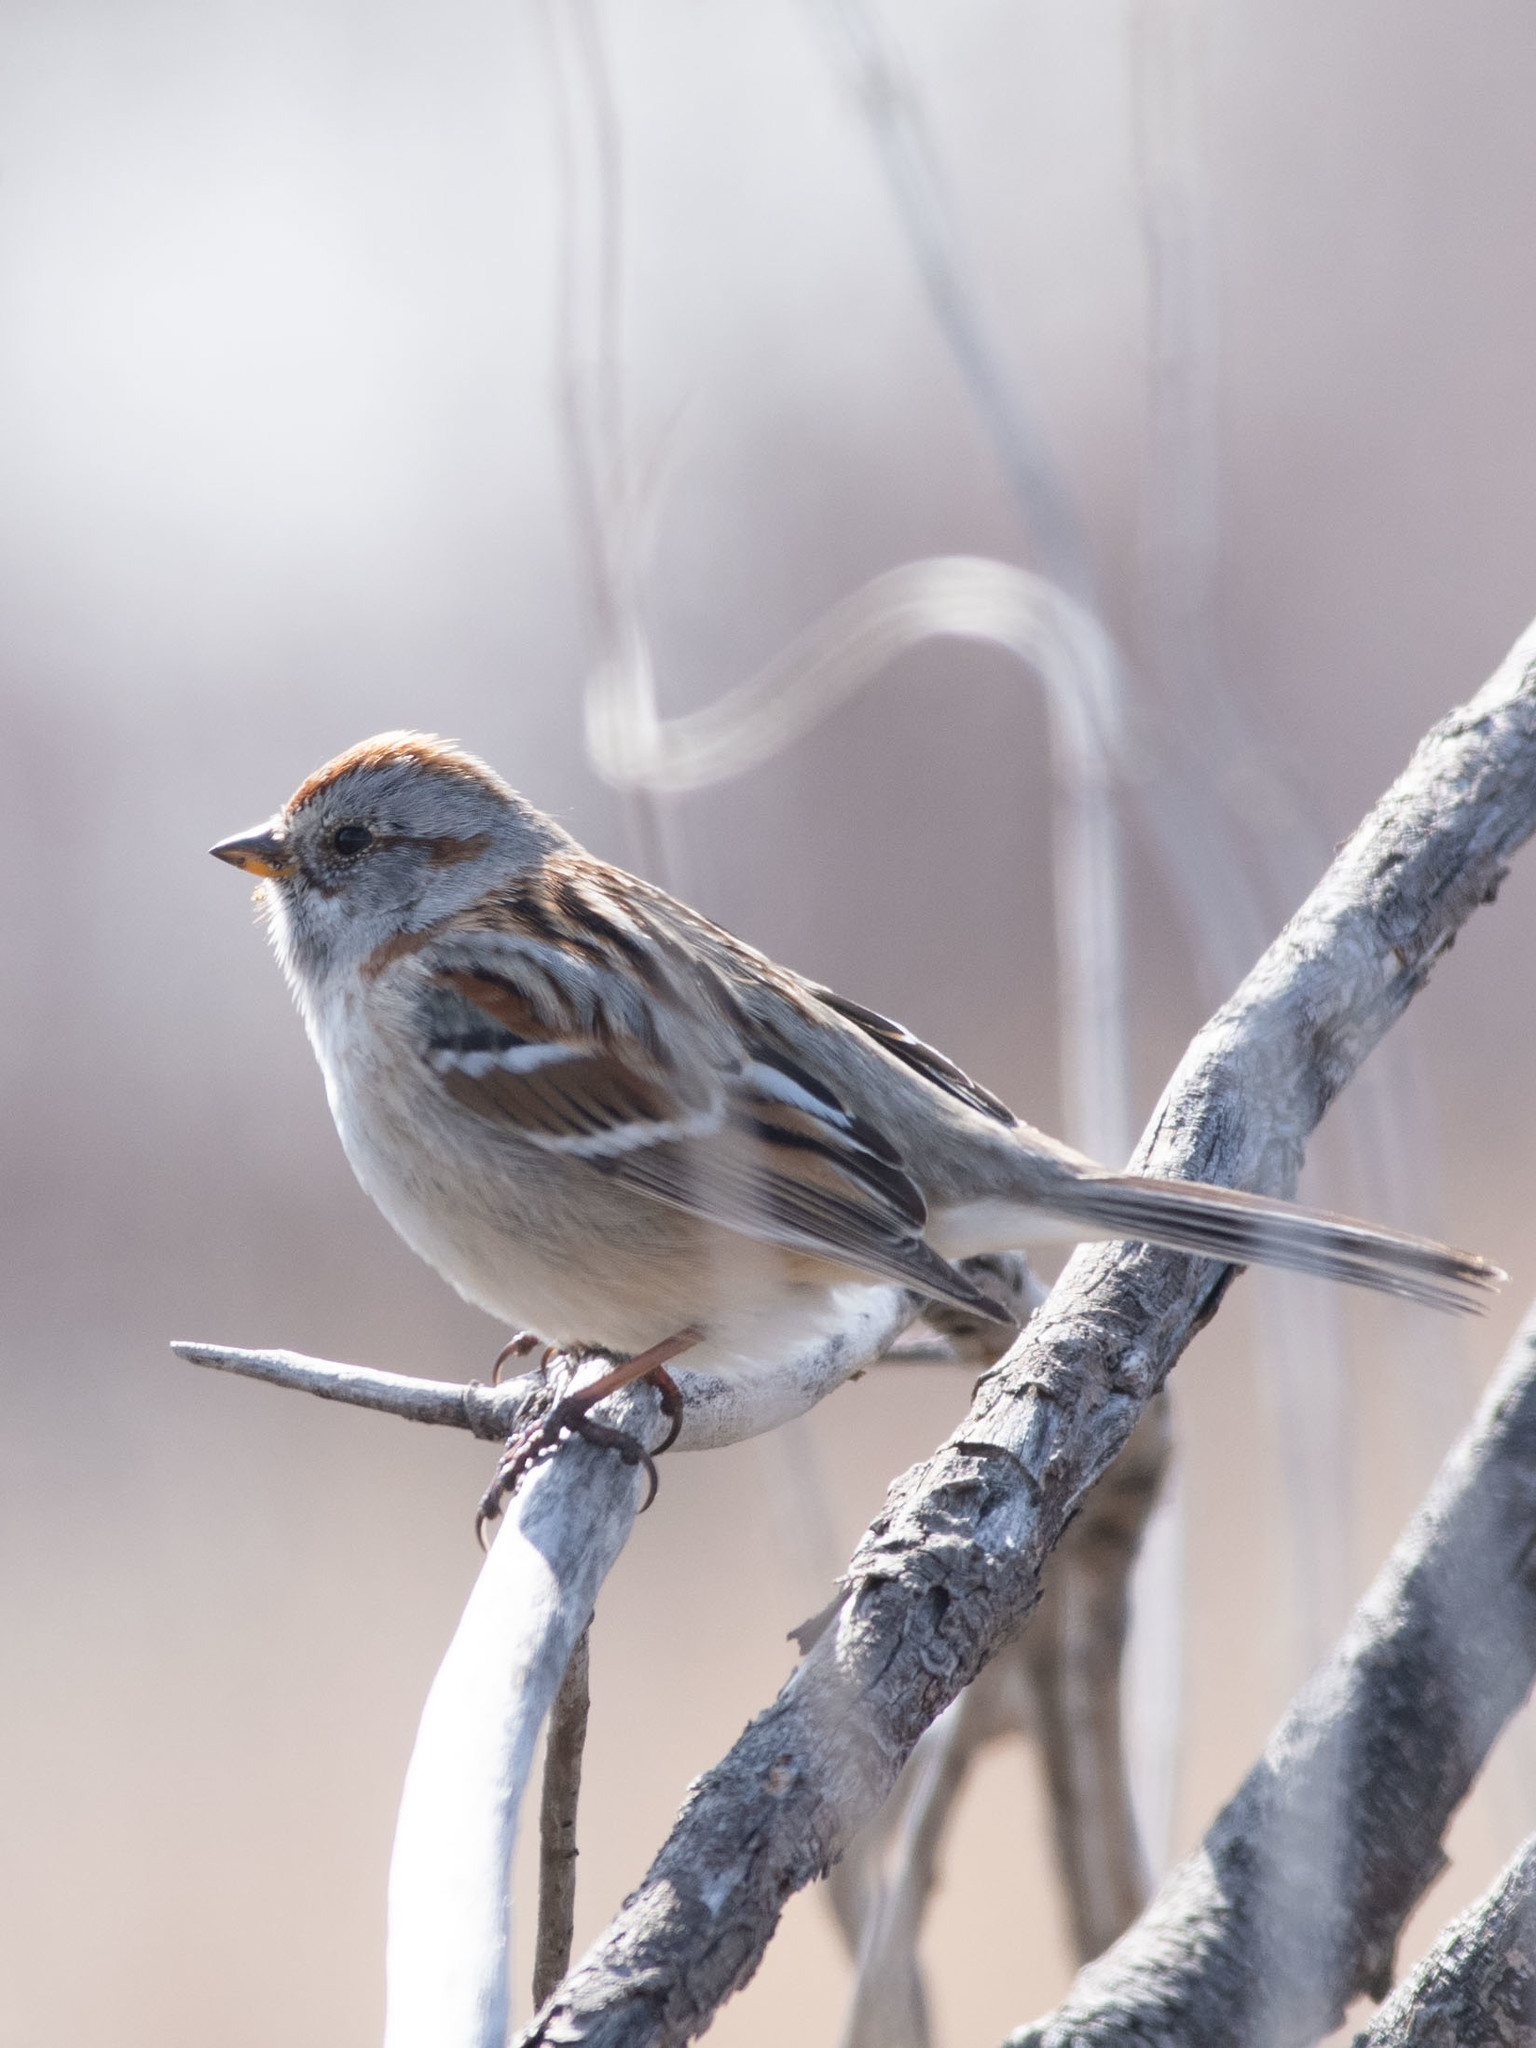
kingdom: Animalia
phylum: Chordata
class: Aves
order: Passeriformes
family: Passerellidae
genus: Spizelloides
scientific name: Spizelloides arborea
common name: American tree sparrow
